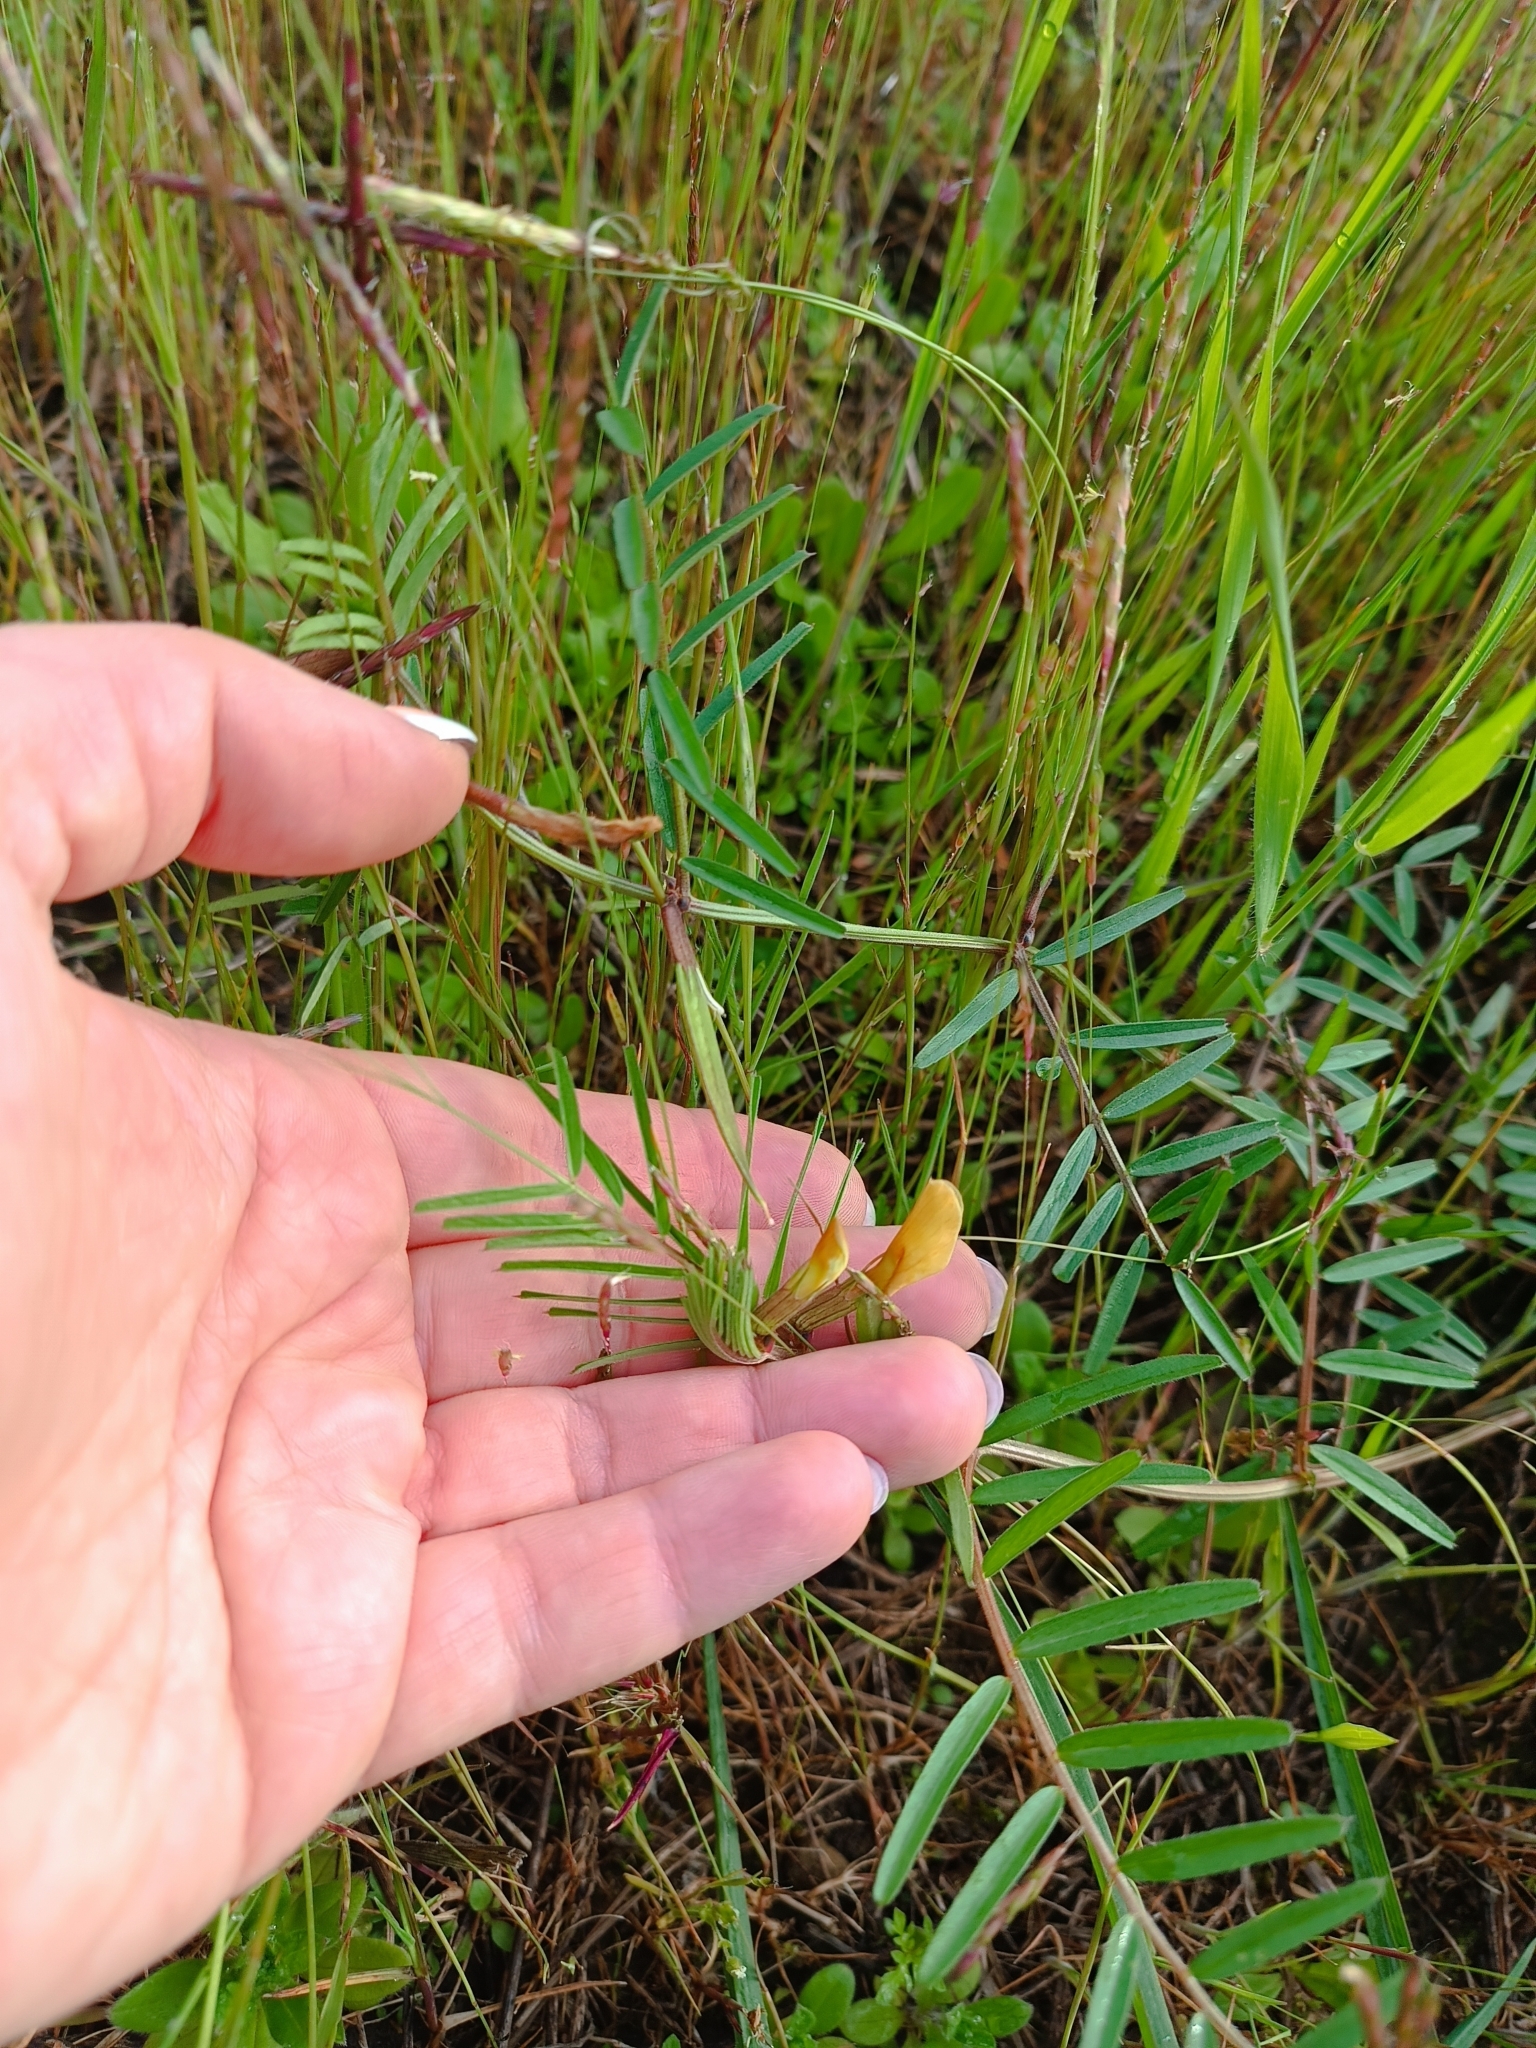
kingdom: Plantae
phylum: Tracheophyta
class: Magnoliopsida
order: Fabales
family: Fabaceae
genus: Vicia
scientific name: Vicia grandiflora
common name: Large yellow vetch
